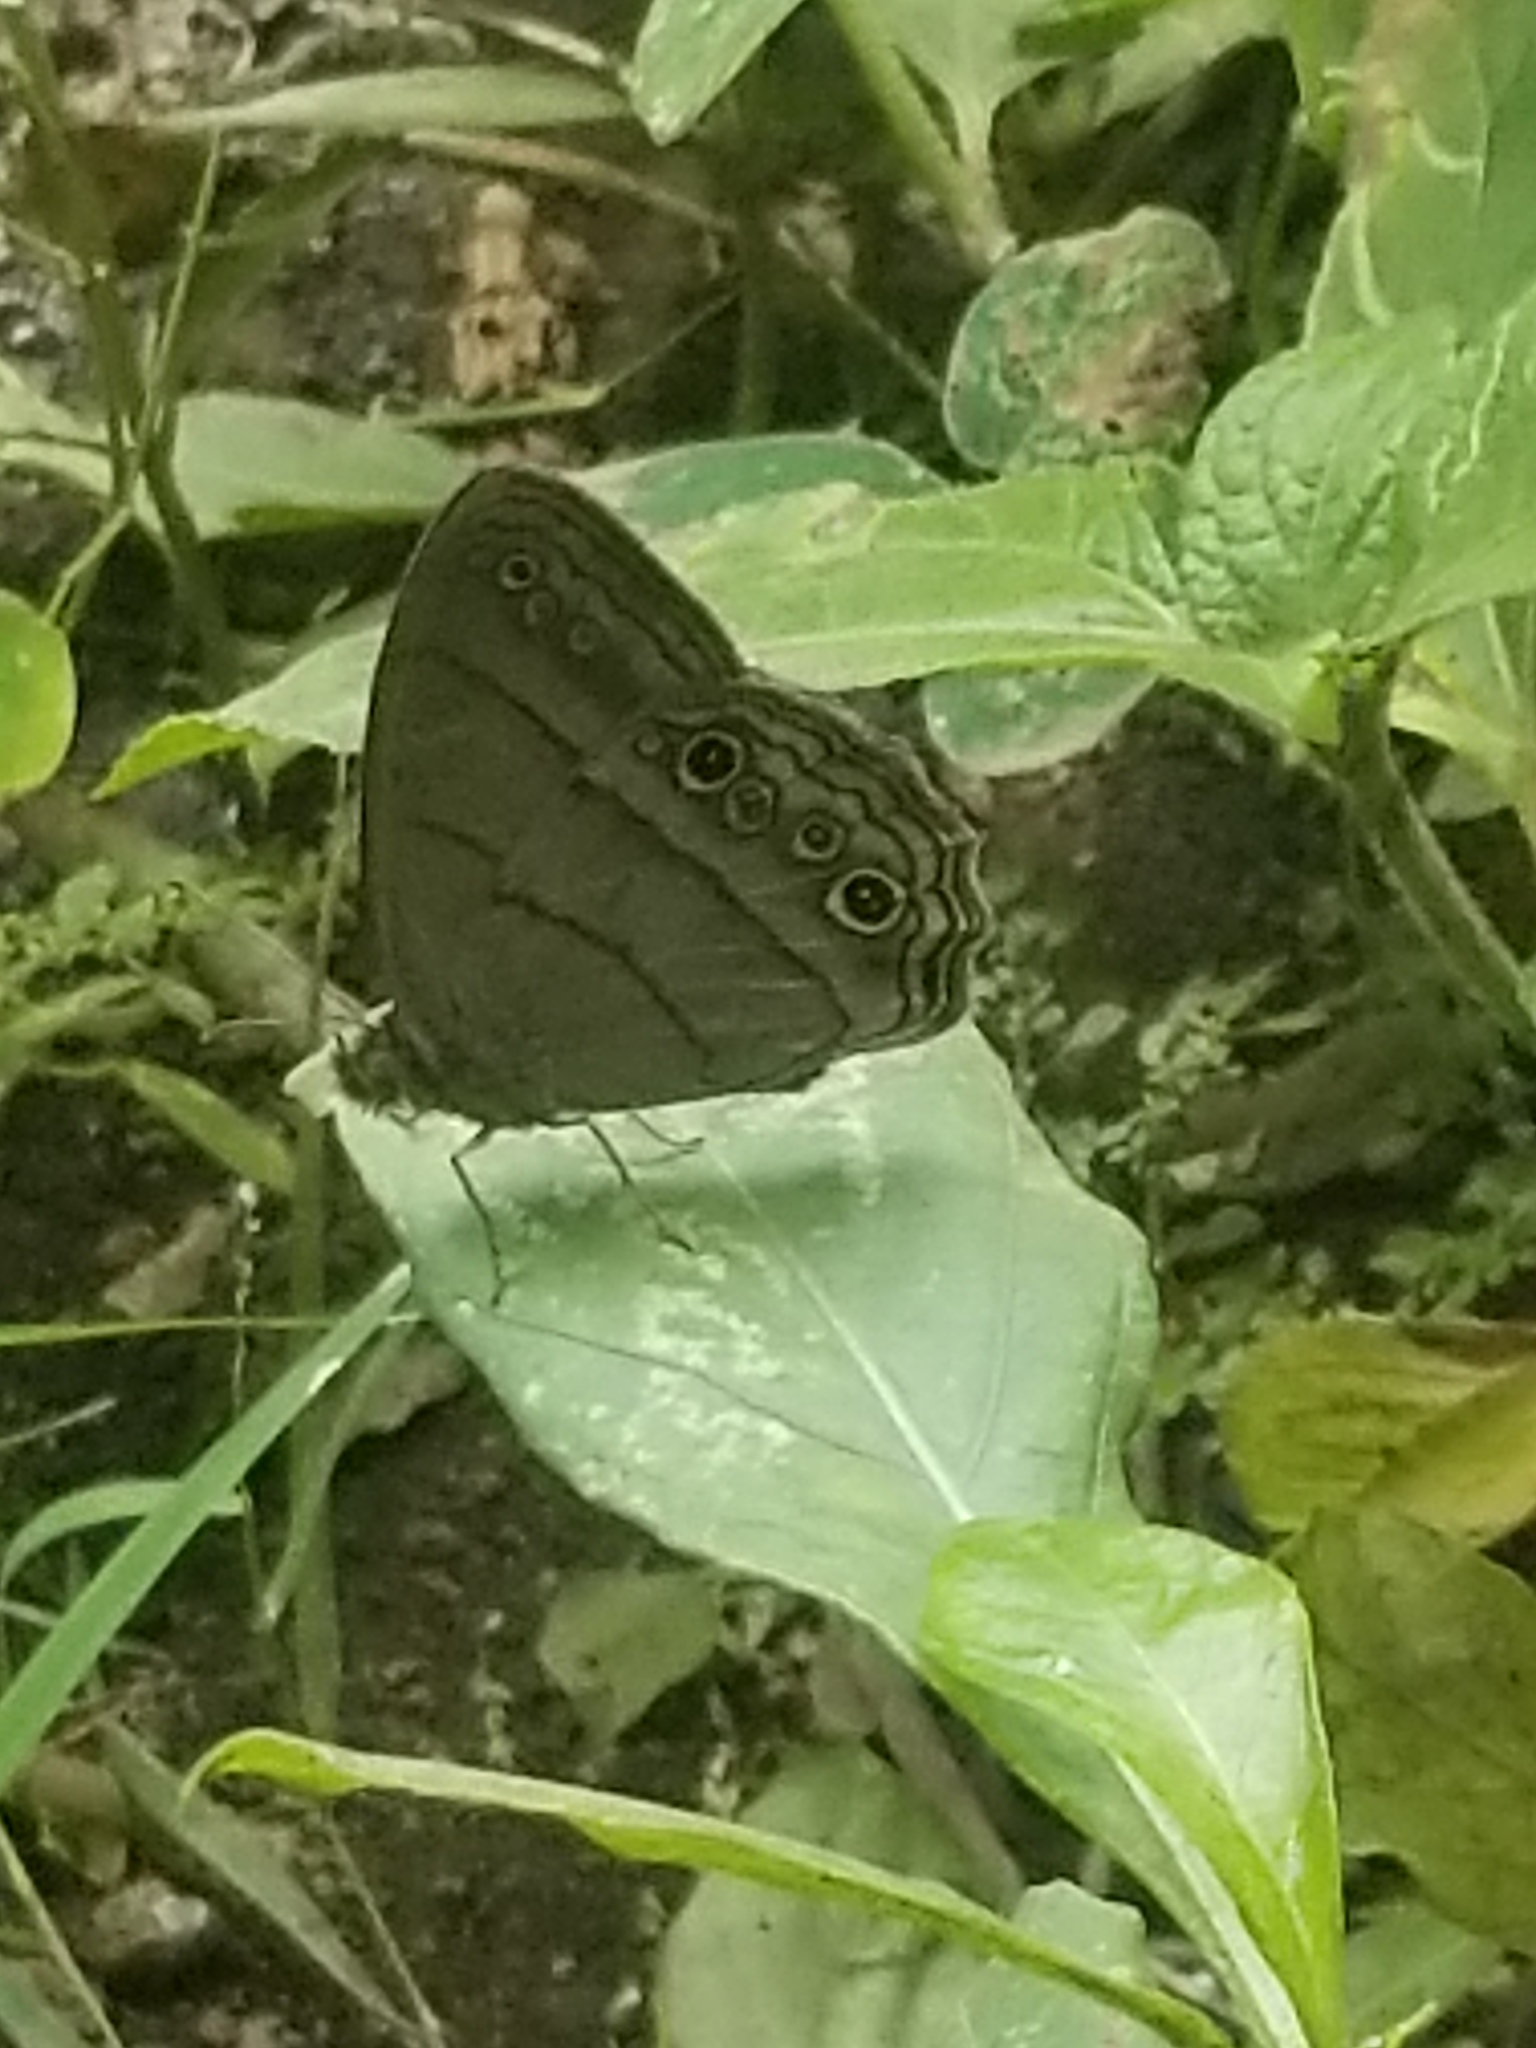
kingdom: Animalia
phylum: Arthropoda
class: Insecta
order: Lepidoptera
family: Nymphalidae
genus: Vareuptychia
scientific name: Vareuptychia similis
